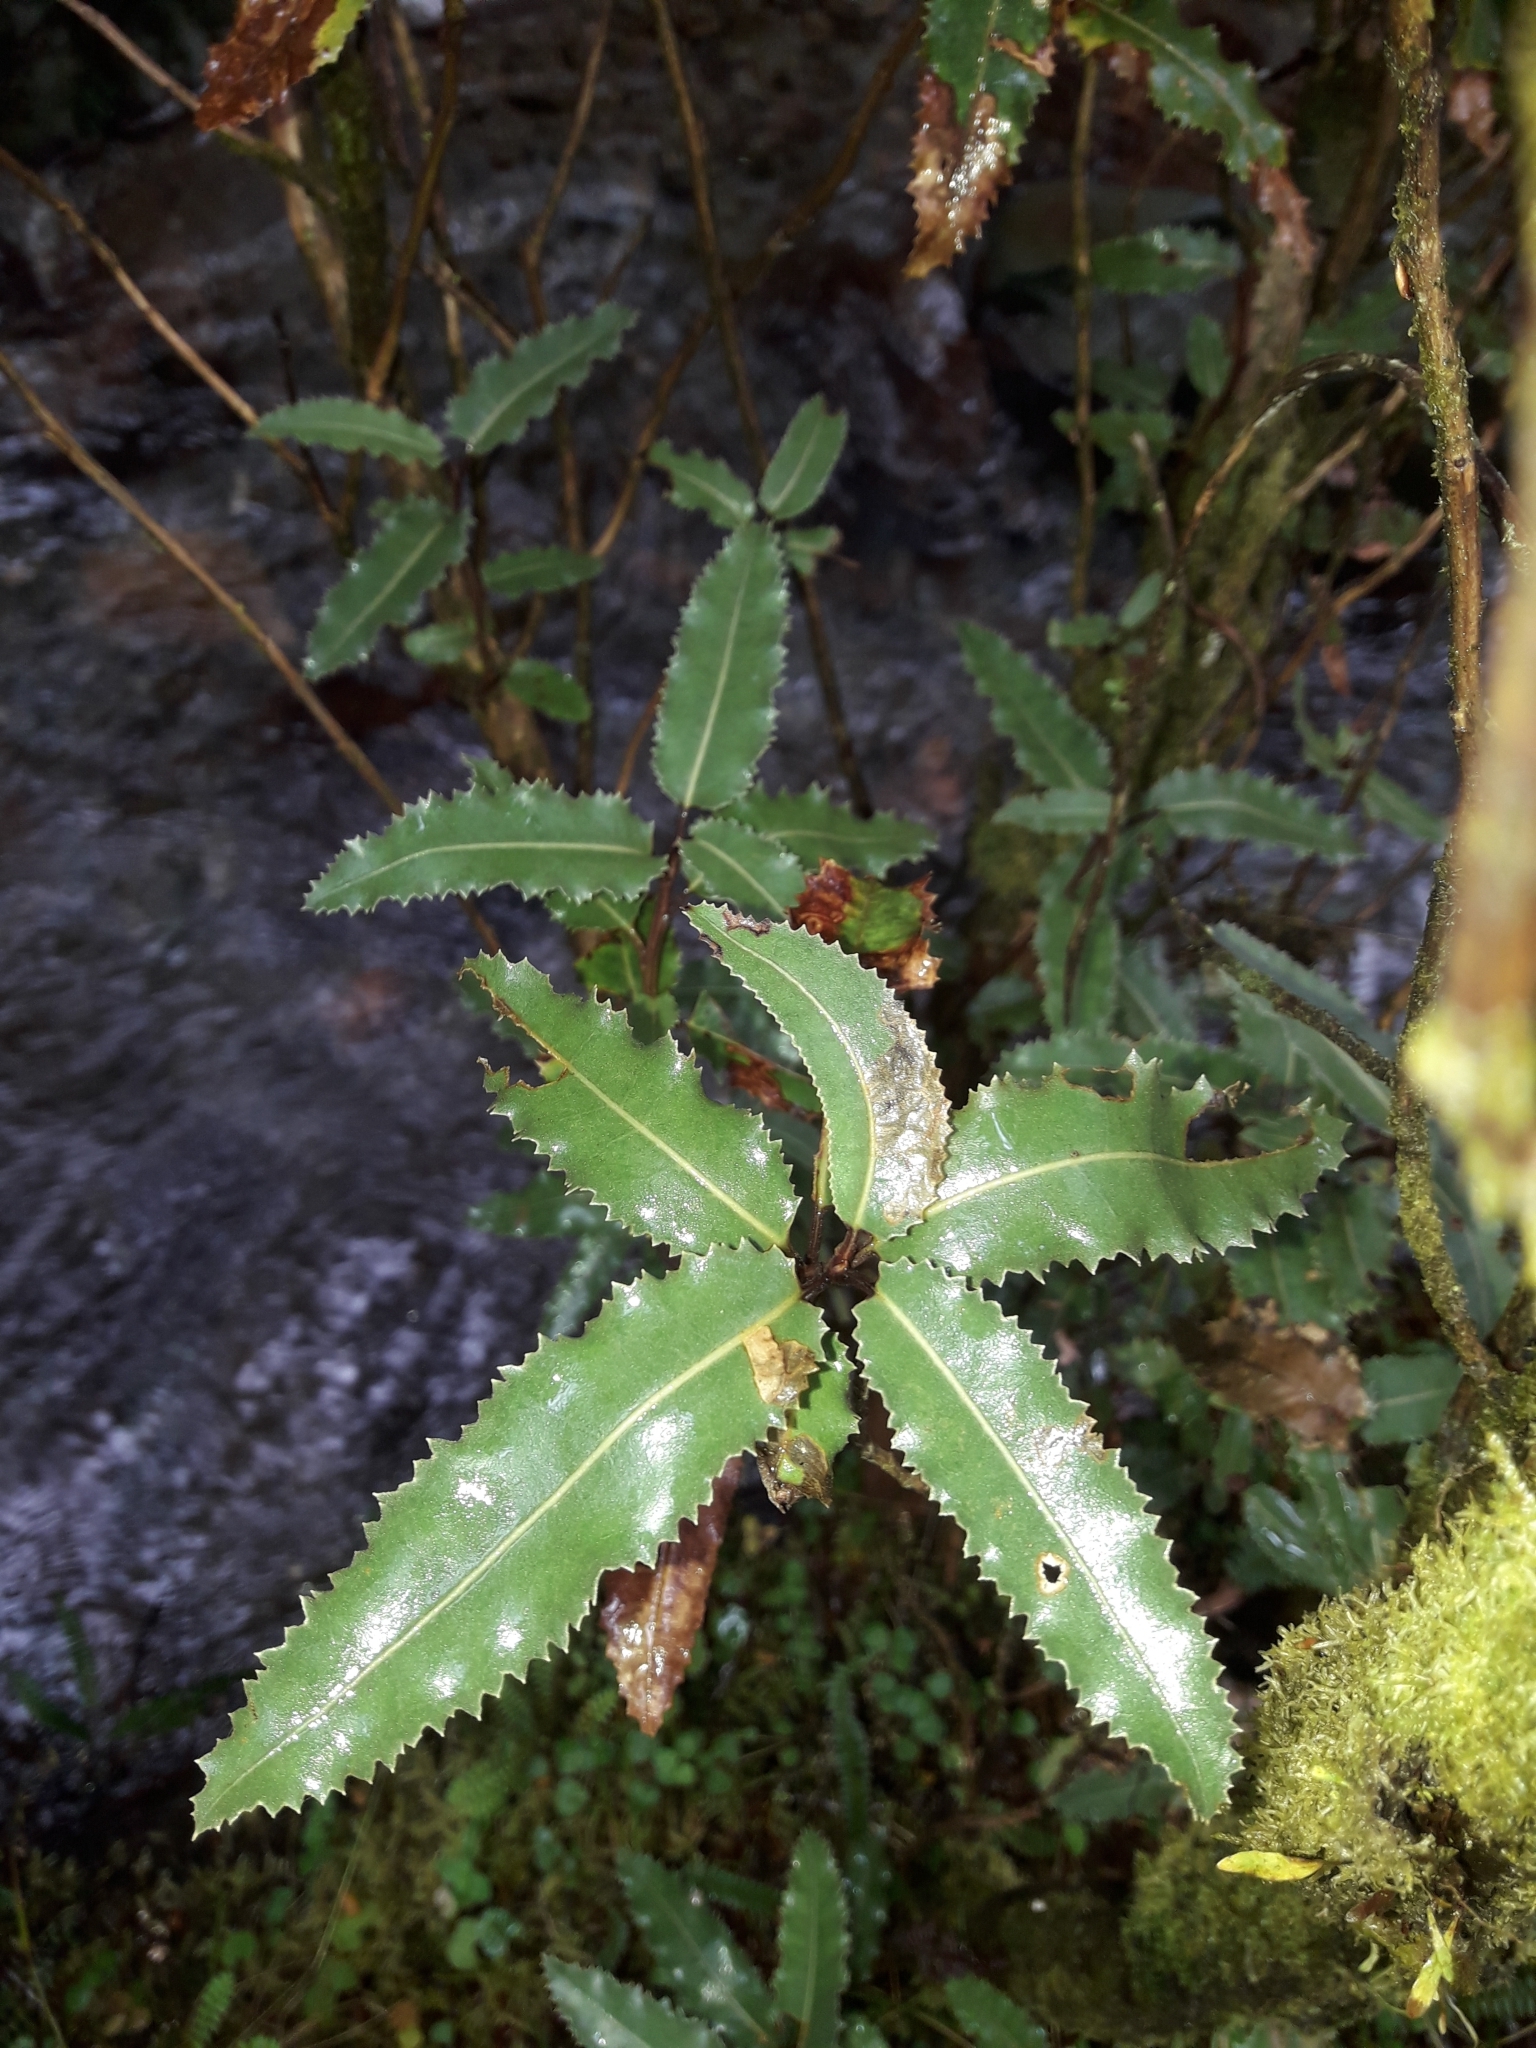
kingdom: Plantae
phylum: Tracheophyta
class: Magnoliopsida
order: Asterales
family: Asteraceae
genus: Olearia
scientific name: Olearia ilicifolia
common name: Maori-holly
